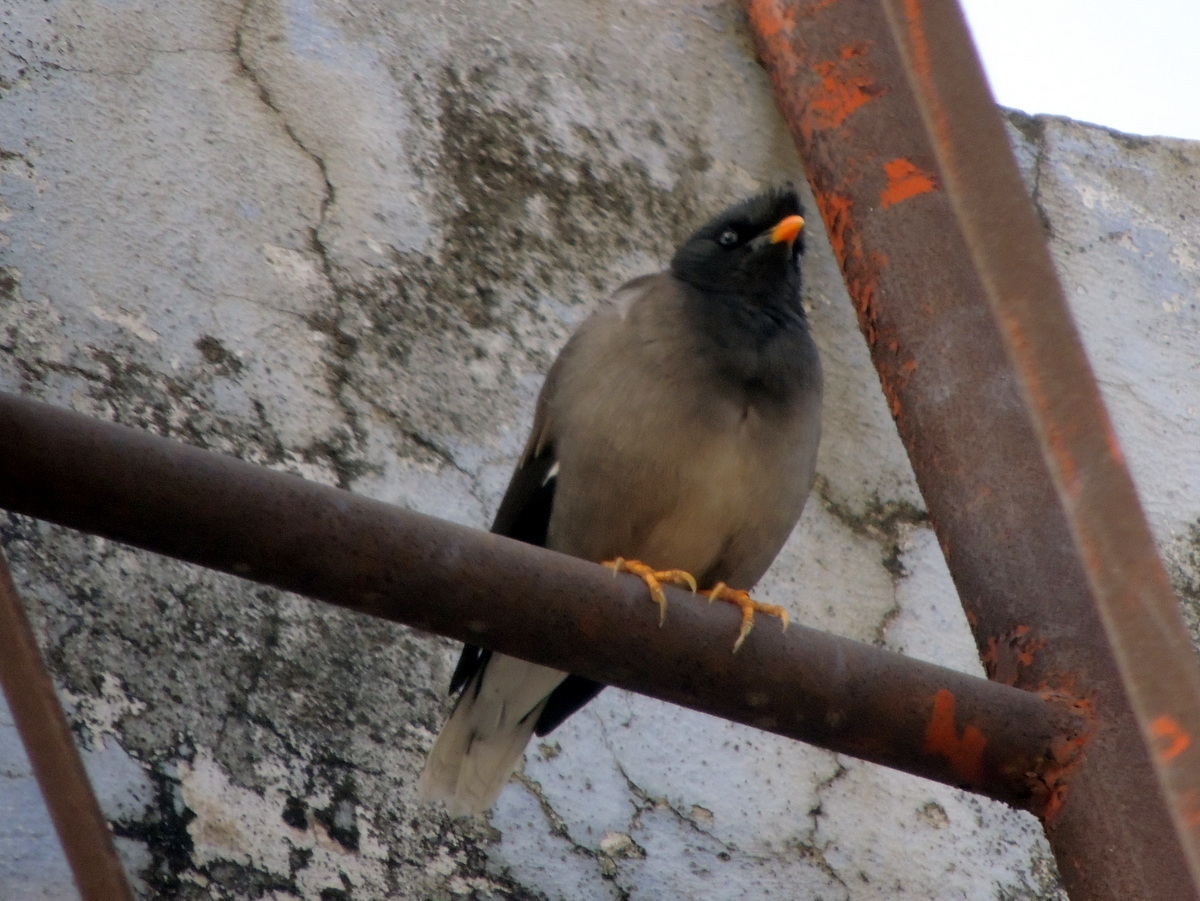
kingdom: Animalia
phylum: Chordata
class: Aves
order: Passeriformes
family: Sturnidae
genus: Acridotheres
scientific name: Acridotheres fuscus
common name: Jungle myna
